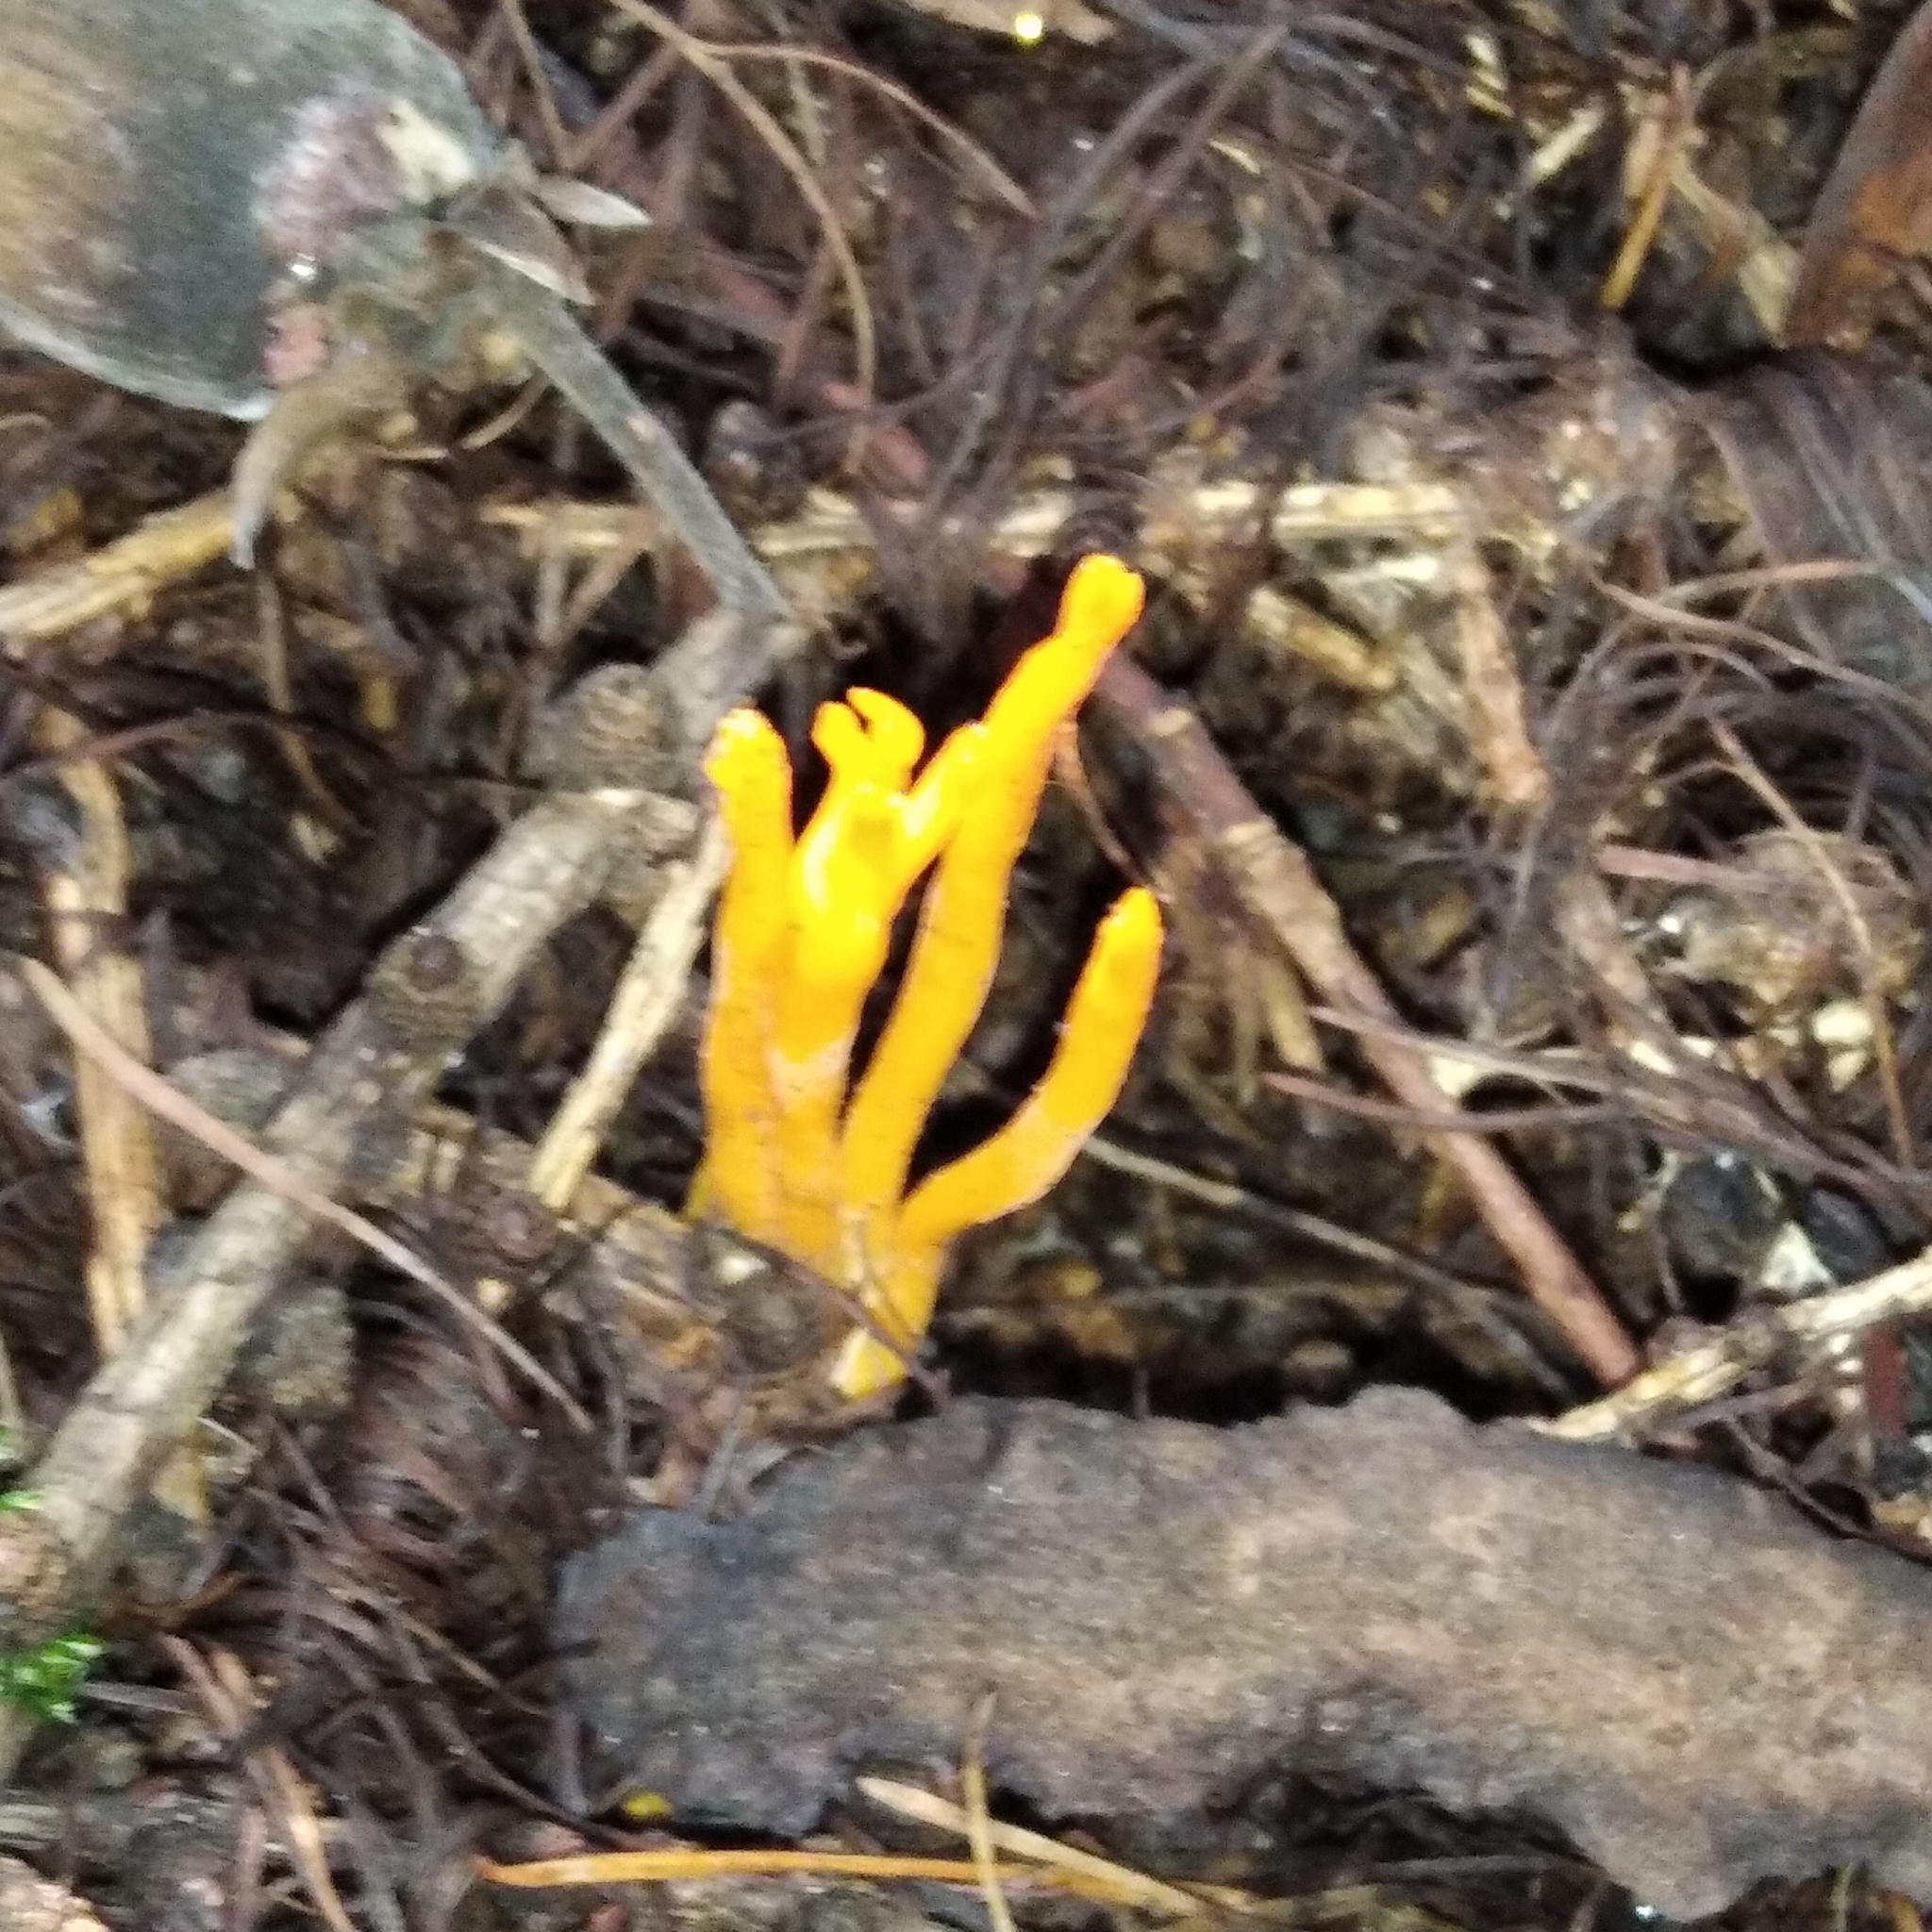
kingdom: Fungi
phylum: Basidiomycota
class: Dacrymycetes
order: Dacrymycetales
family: Dacrymycetaceae
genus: Calocera
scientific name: Calocera viscosa
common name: Yellow stagshorn
